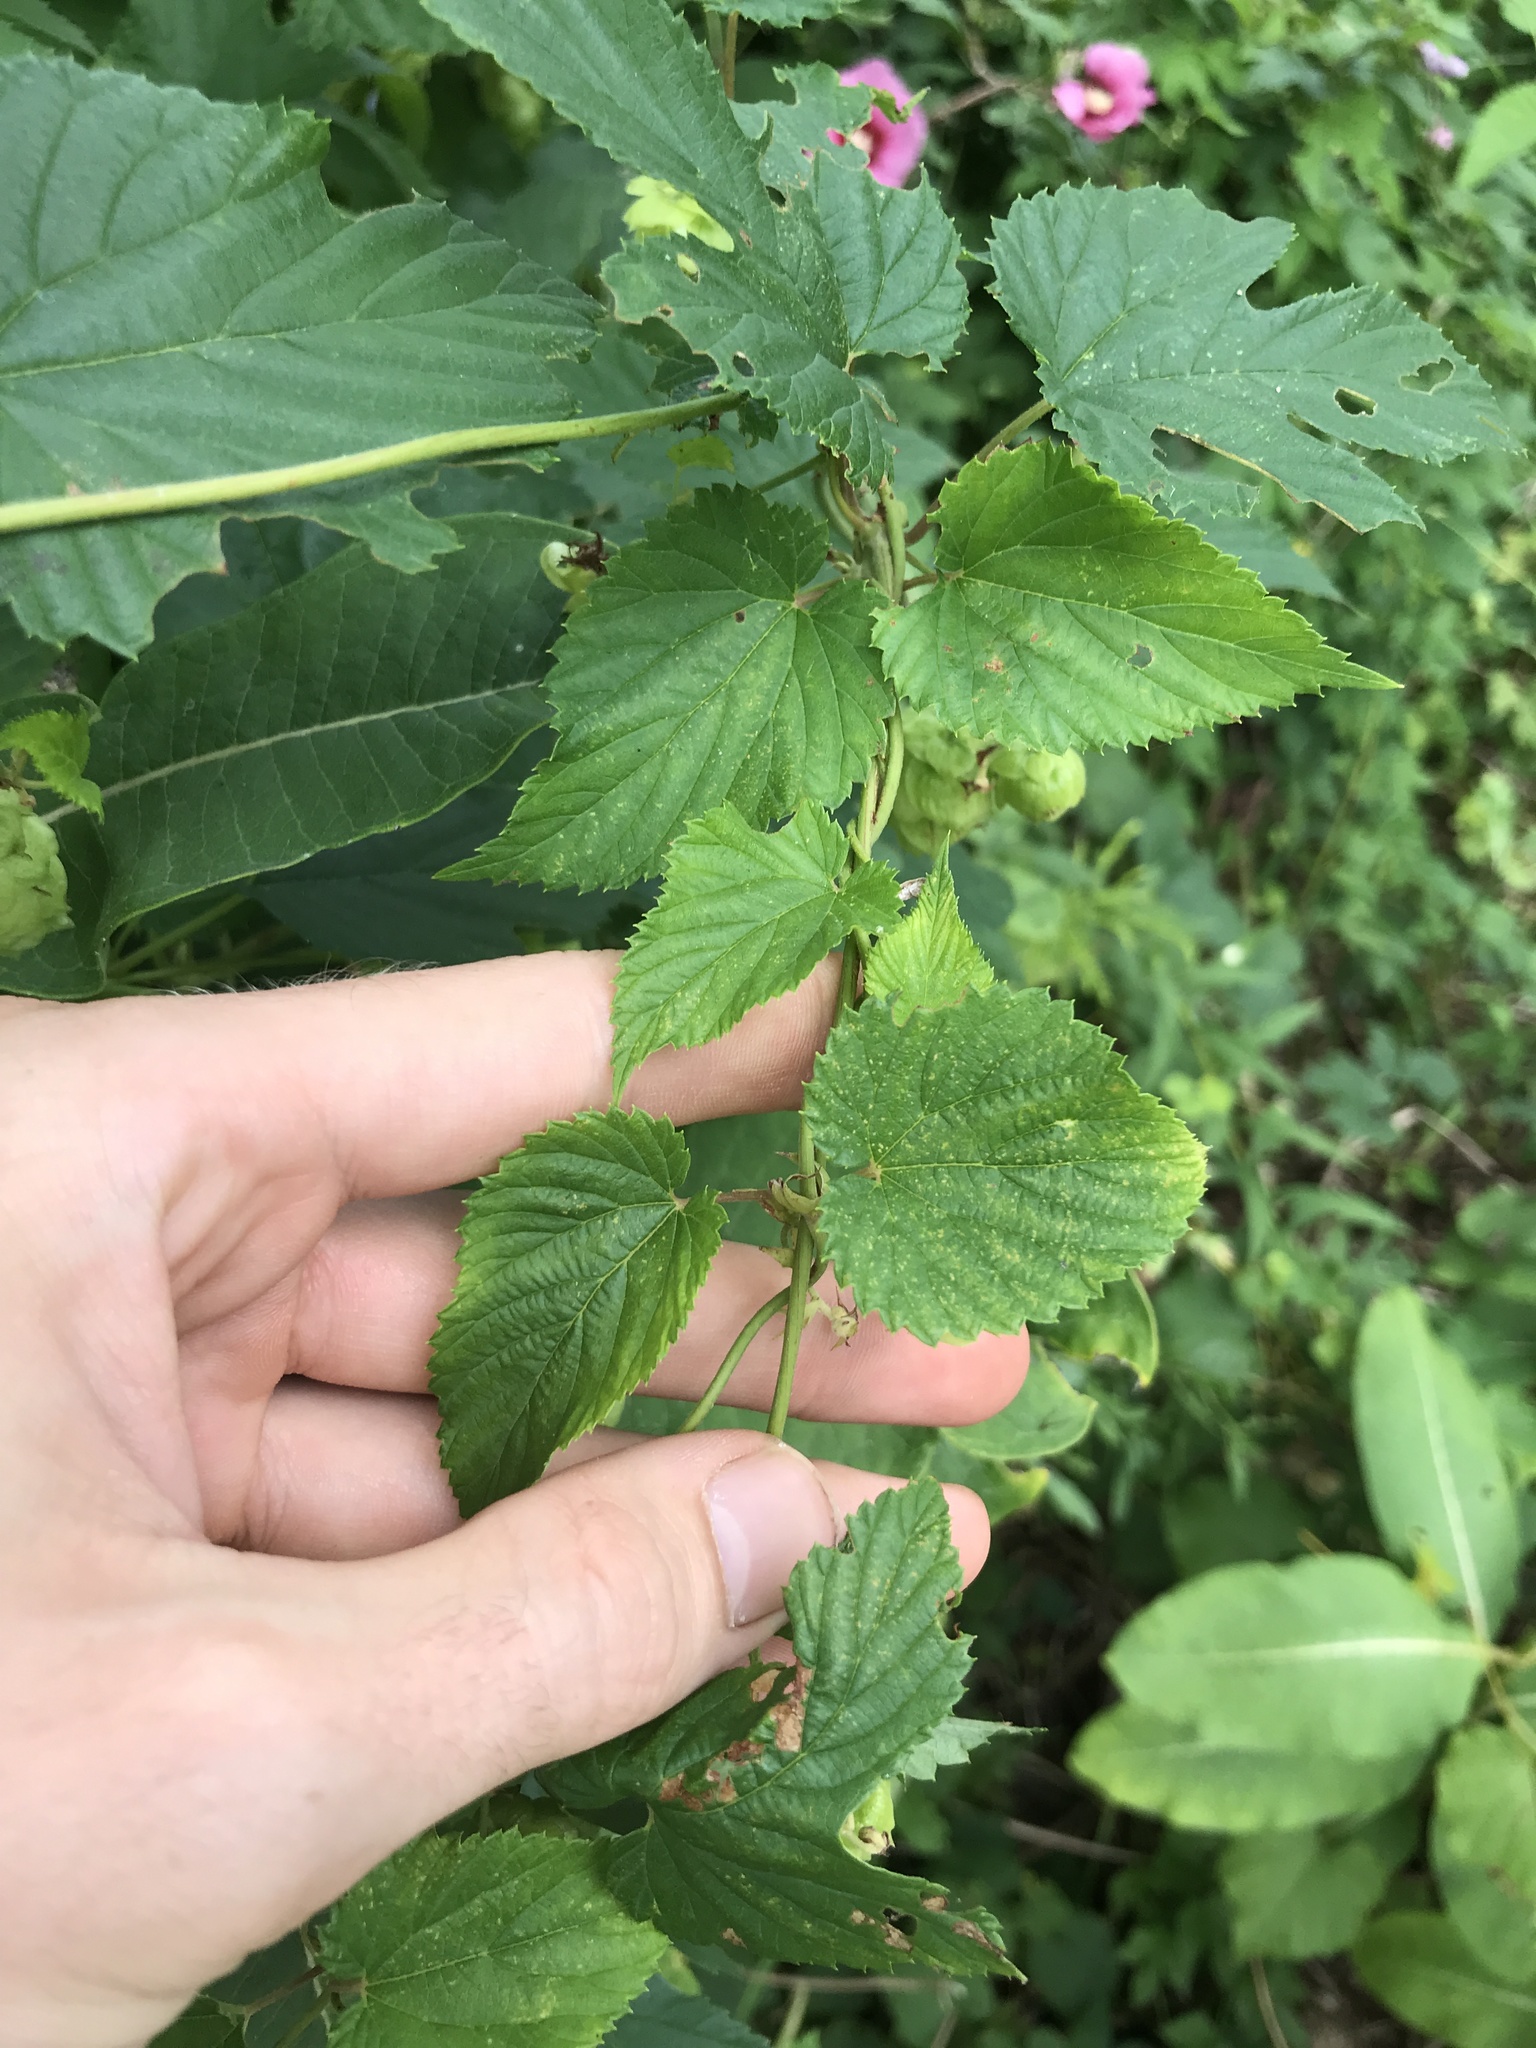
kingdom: Plantae
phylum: Tracheophyta
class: Magnoliopsida
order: Rosales
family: Cannabaceae
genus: Humulus
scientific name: Humulus lupulus
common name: Hop
